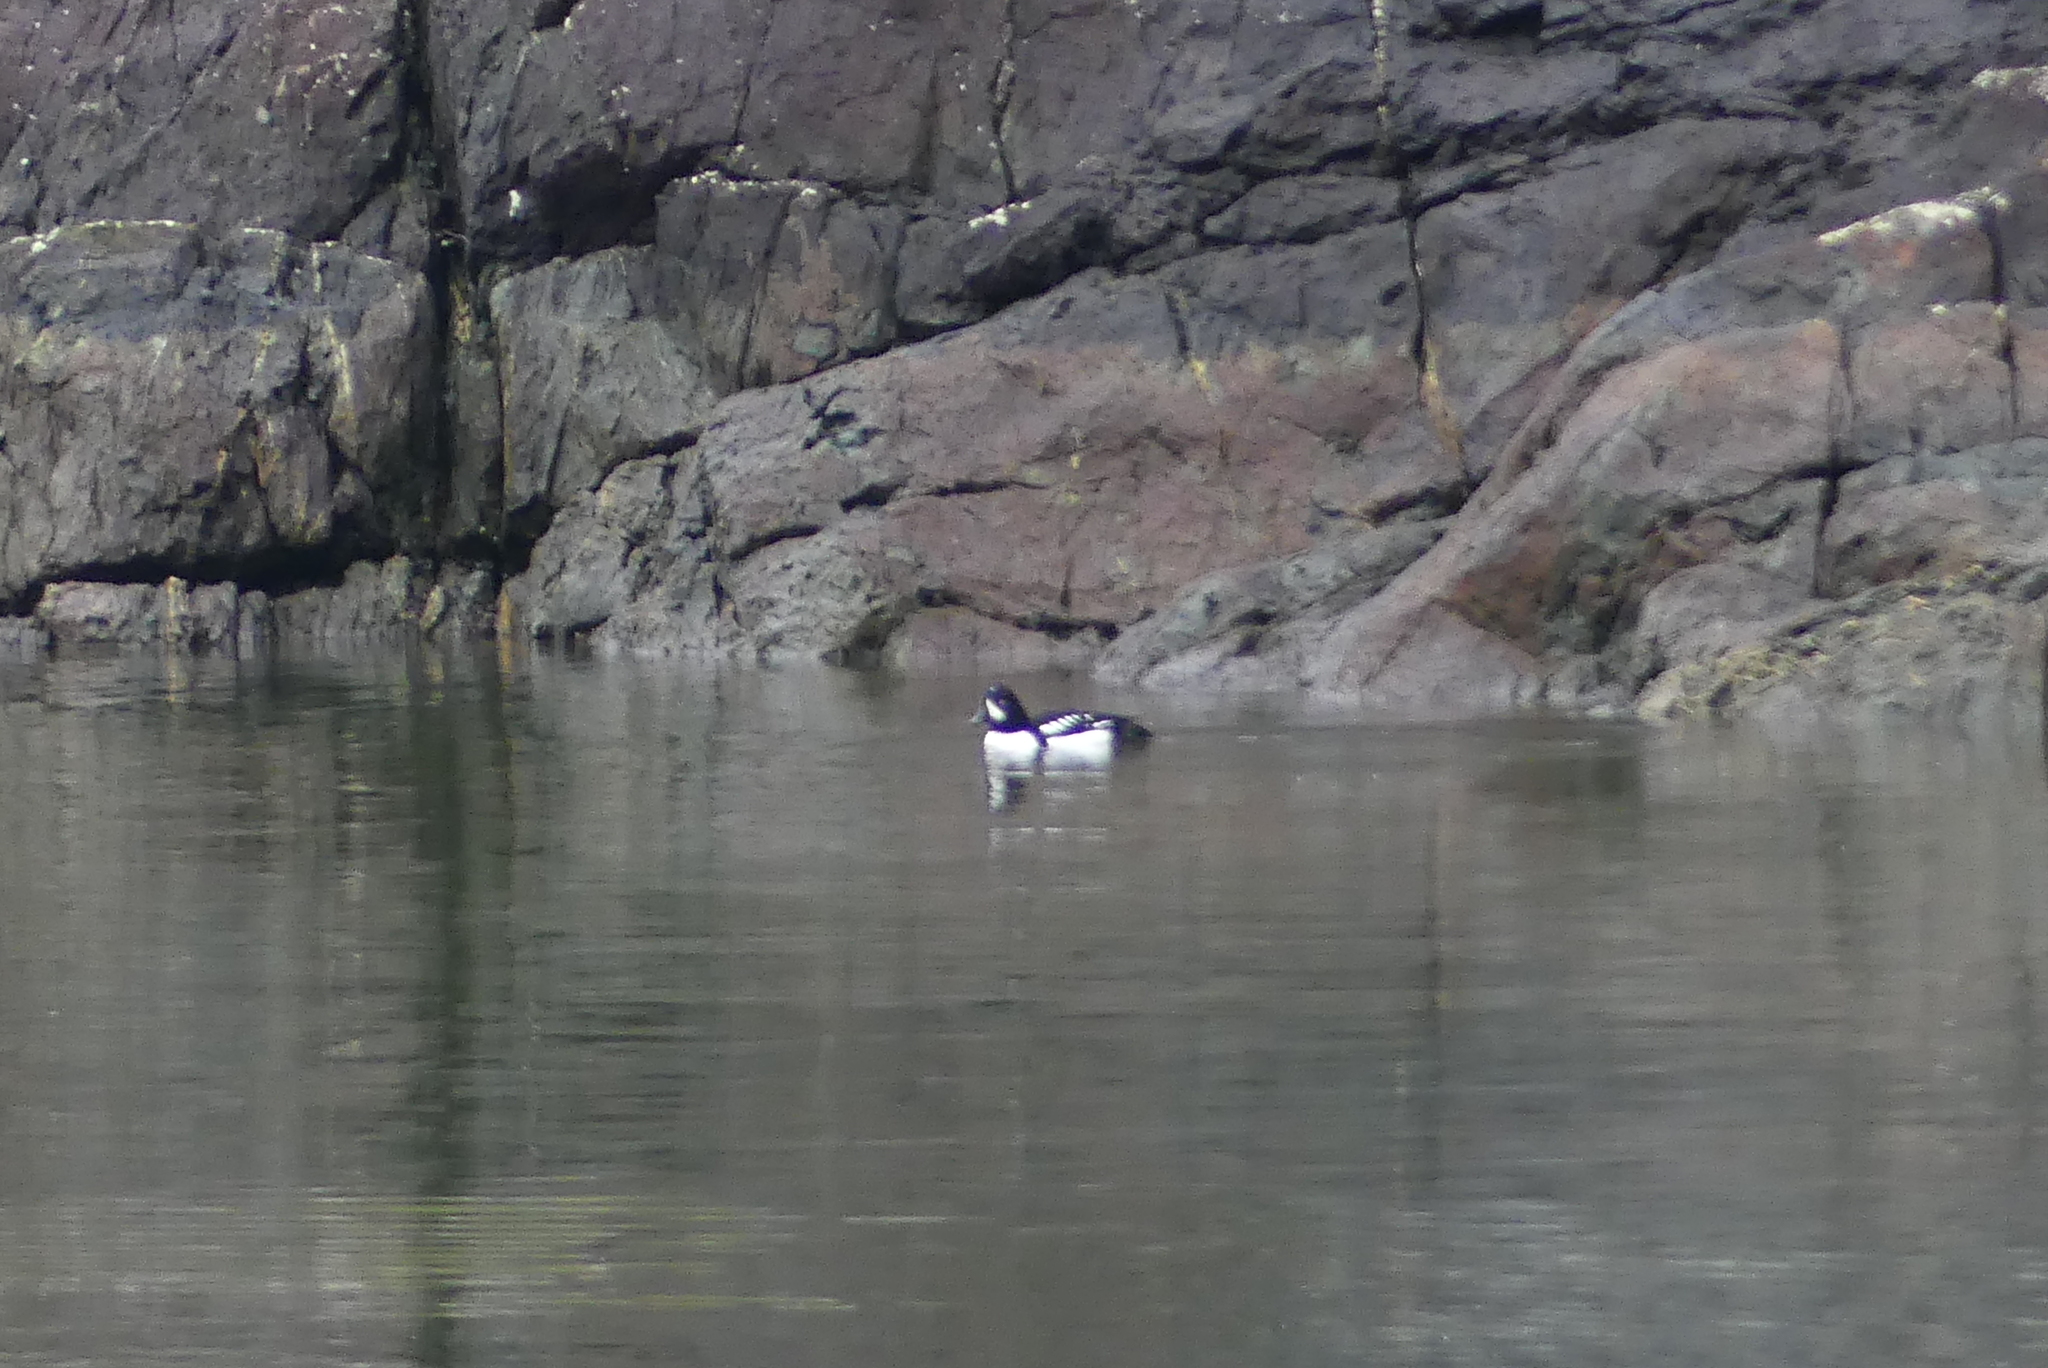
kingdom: Animalia
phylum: Chordata
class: Aves
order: Anseriformes
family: Anatidae
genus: Bucephala
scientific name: Bucephala islandica
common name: Barrow's goldeneye
